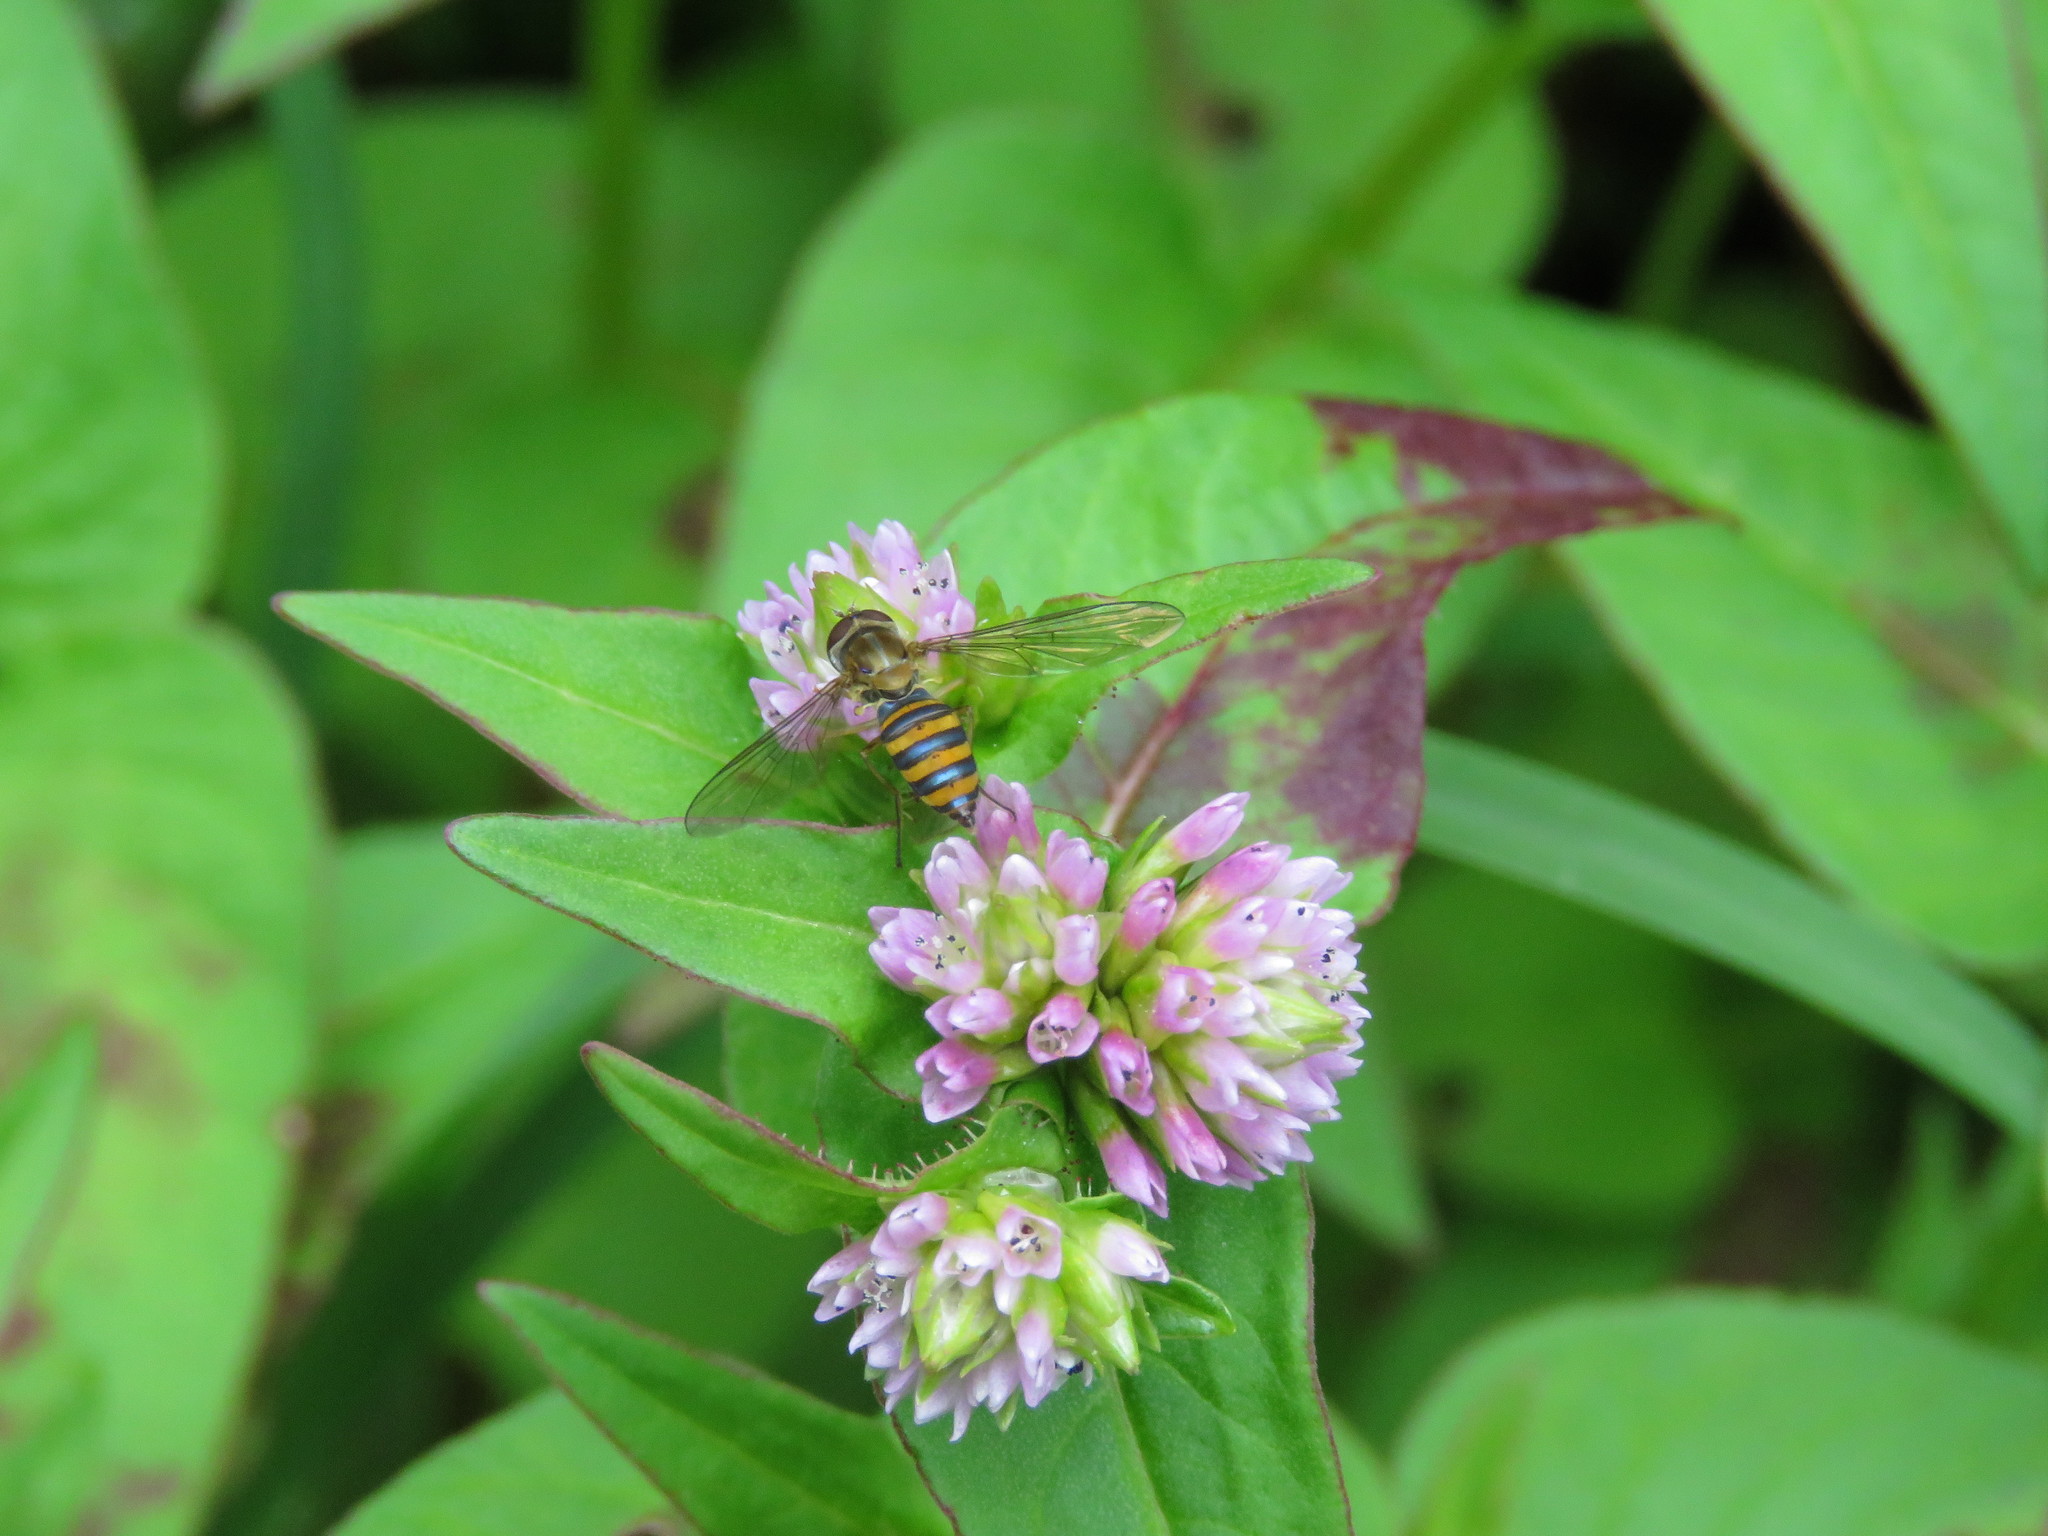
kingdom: Animalia
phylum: Arthropoda
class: Insecta
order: Diptera
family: Syrphidae
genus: Toxomerus
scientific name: Toxomerus
